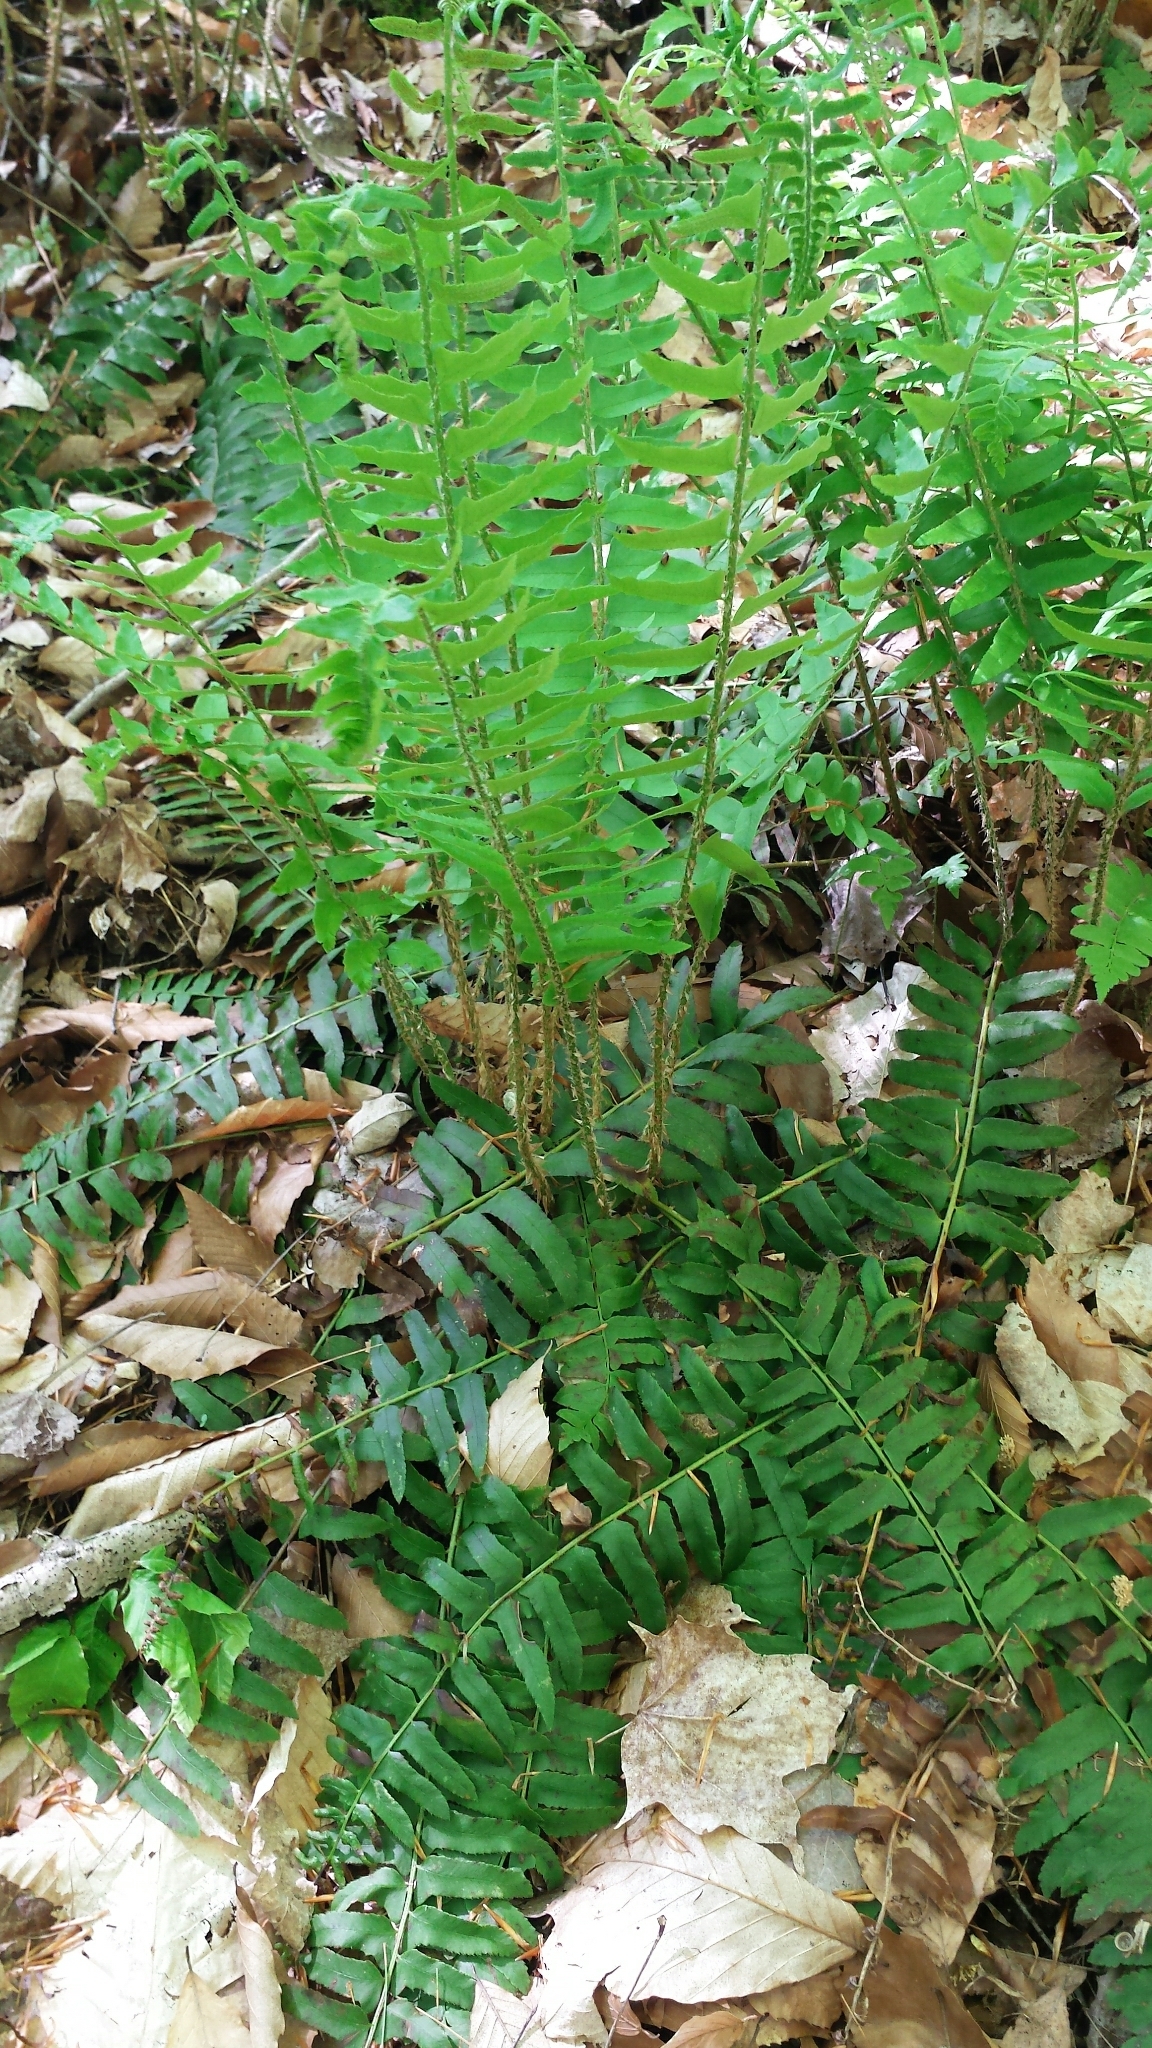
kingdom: Plantae
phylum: Tracheophyta
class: Polypodiopsida
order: Polypodiales
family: Dryopteridaceae
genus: Polystichum
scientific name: Polystichum acrostichoides
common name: Christmas fern
